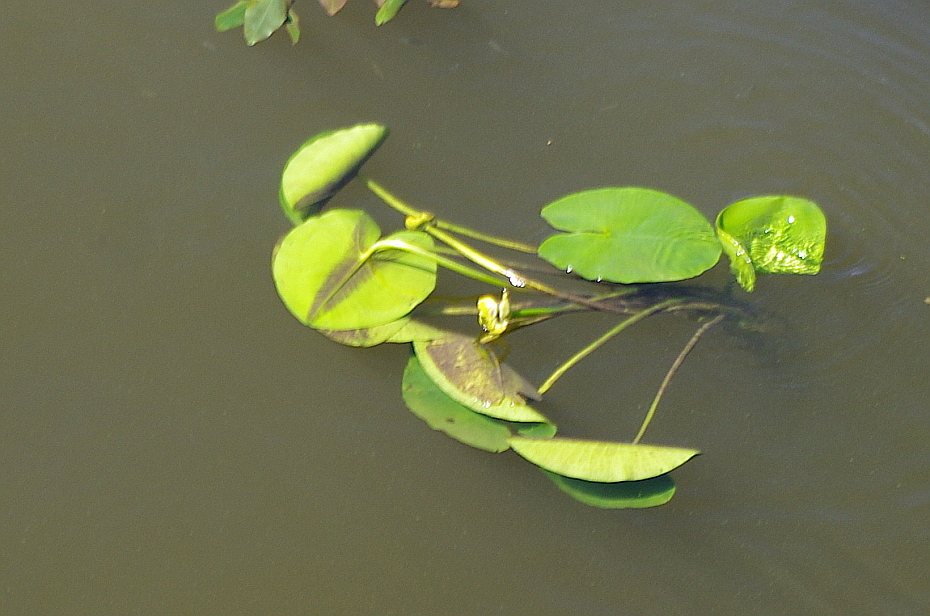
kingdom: Plantae
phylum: Tracheophyta
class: Magnoliopsida
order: Nymphaeales
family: Nymphaeaceae
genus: Nuphar
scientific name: Nuphar lutea
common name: Yellow water-lily
